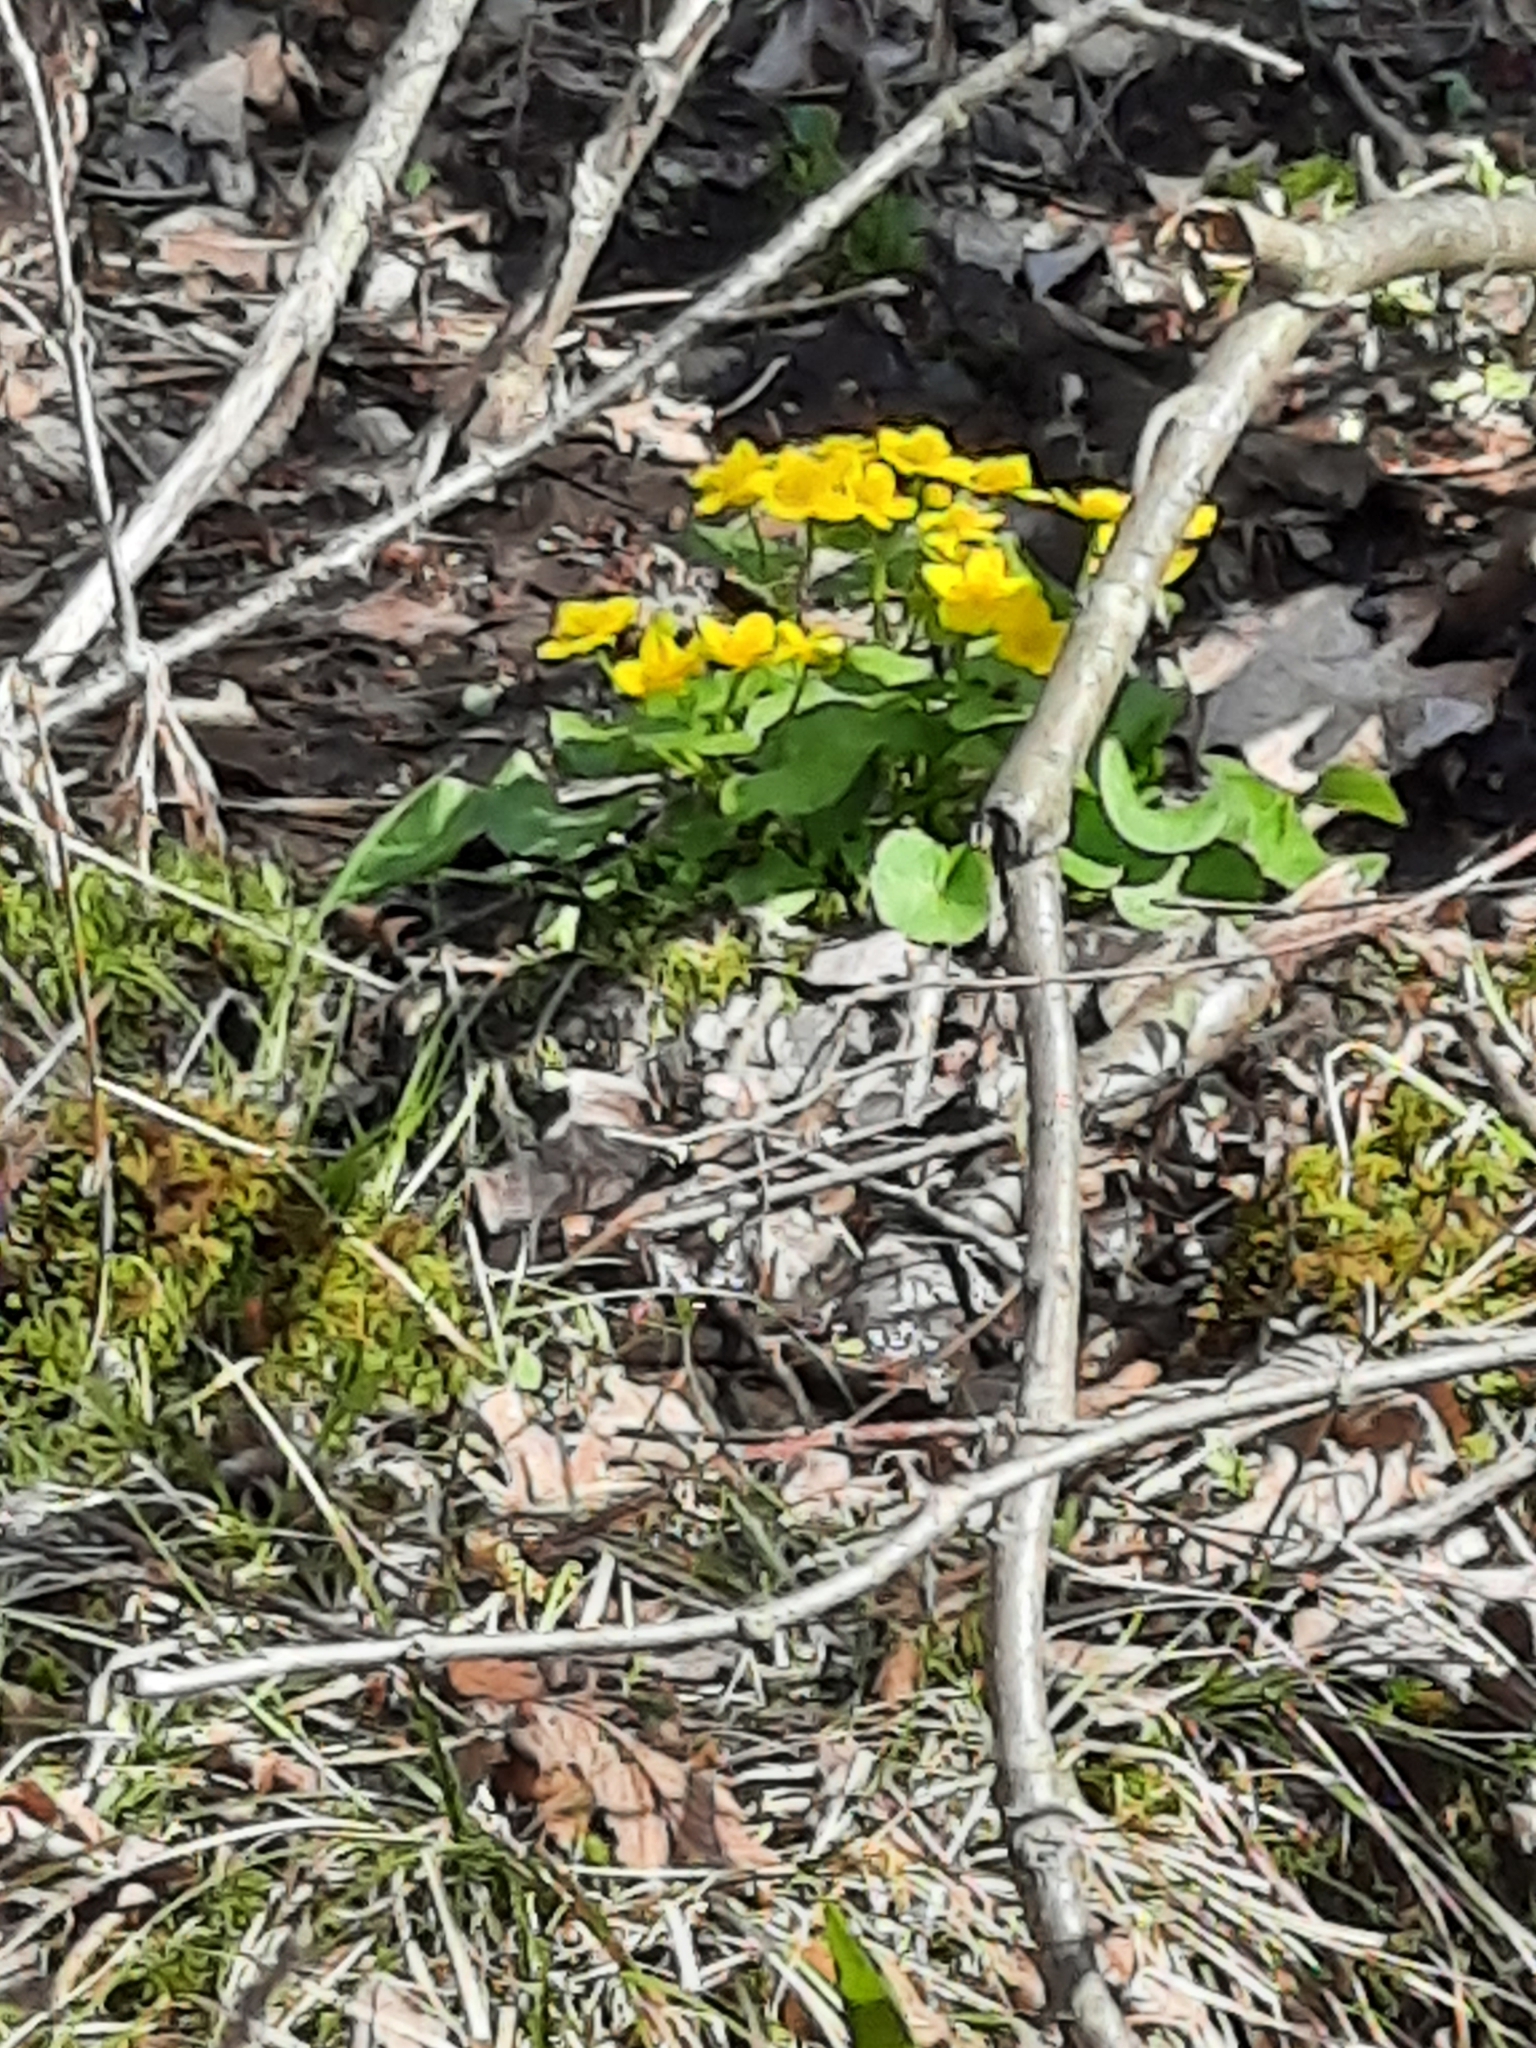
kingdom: Plantae
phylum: Tracheophyta
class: Magnoliopsida
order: Ranunculales
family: Ranunculaceae
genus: Caltha
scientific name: Caltha palustris
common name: Marsh marigold
